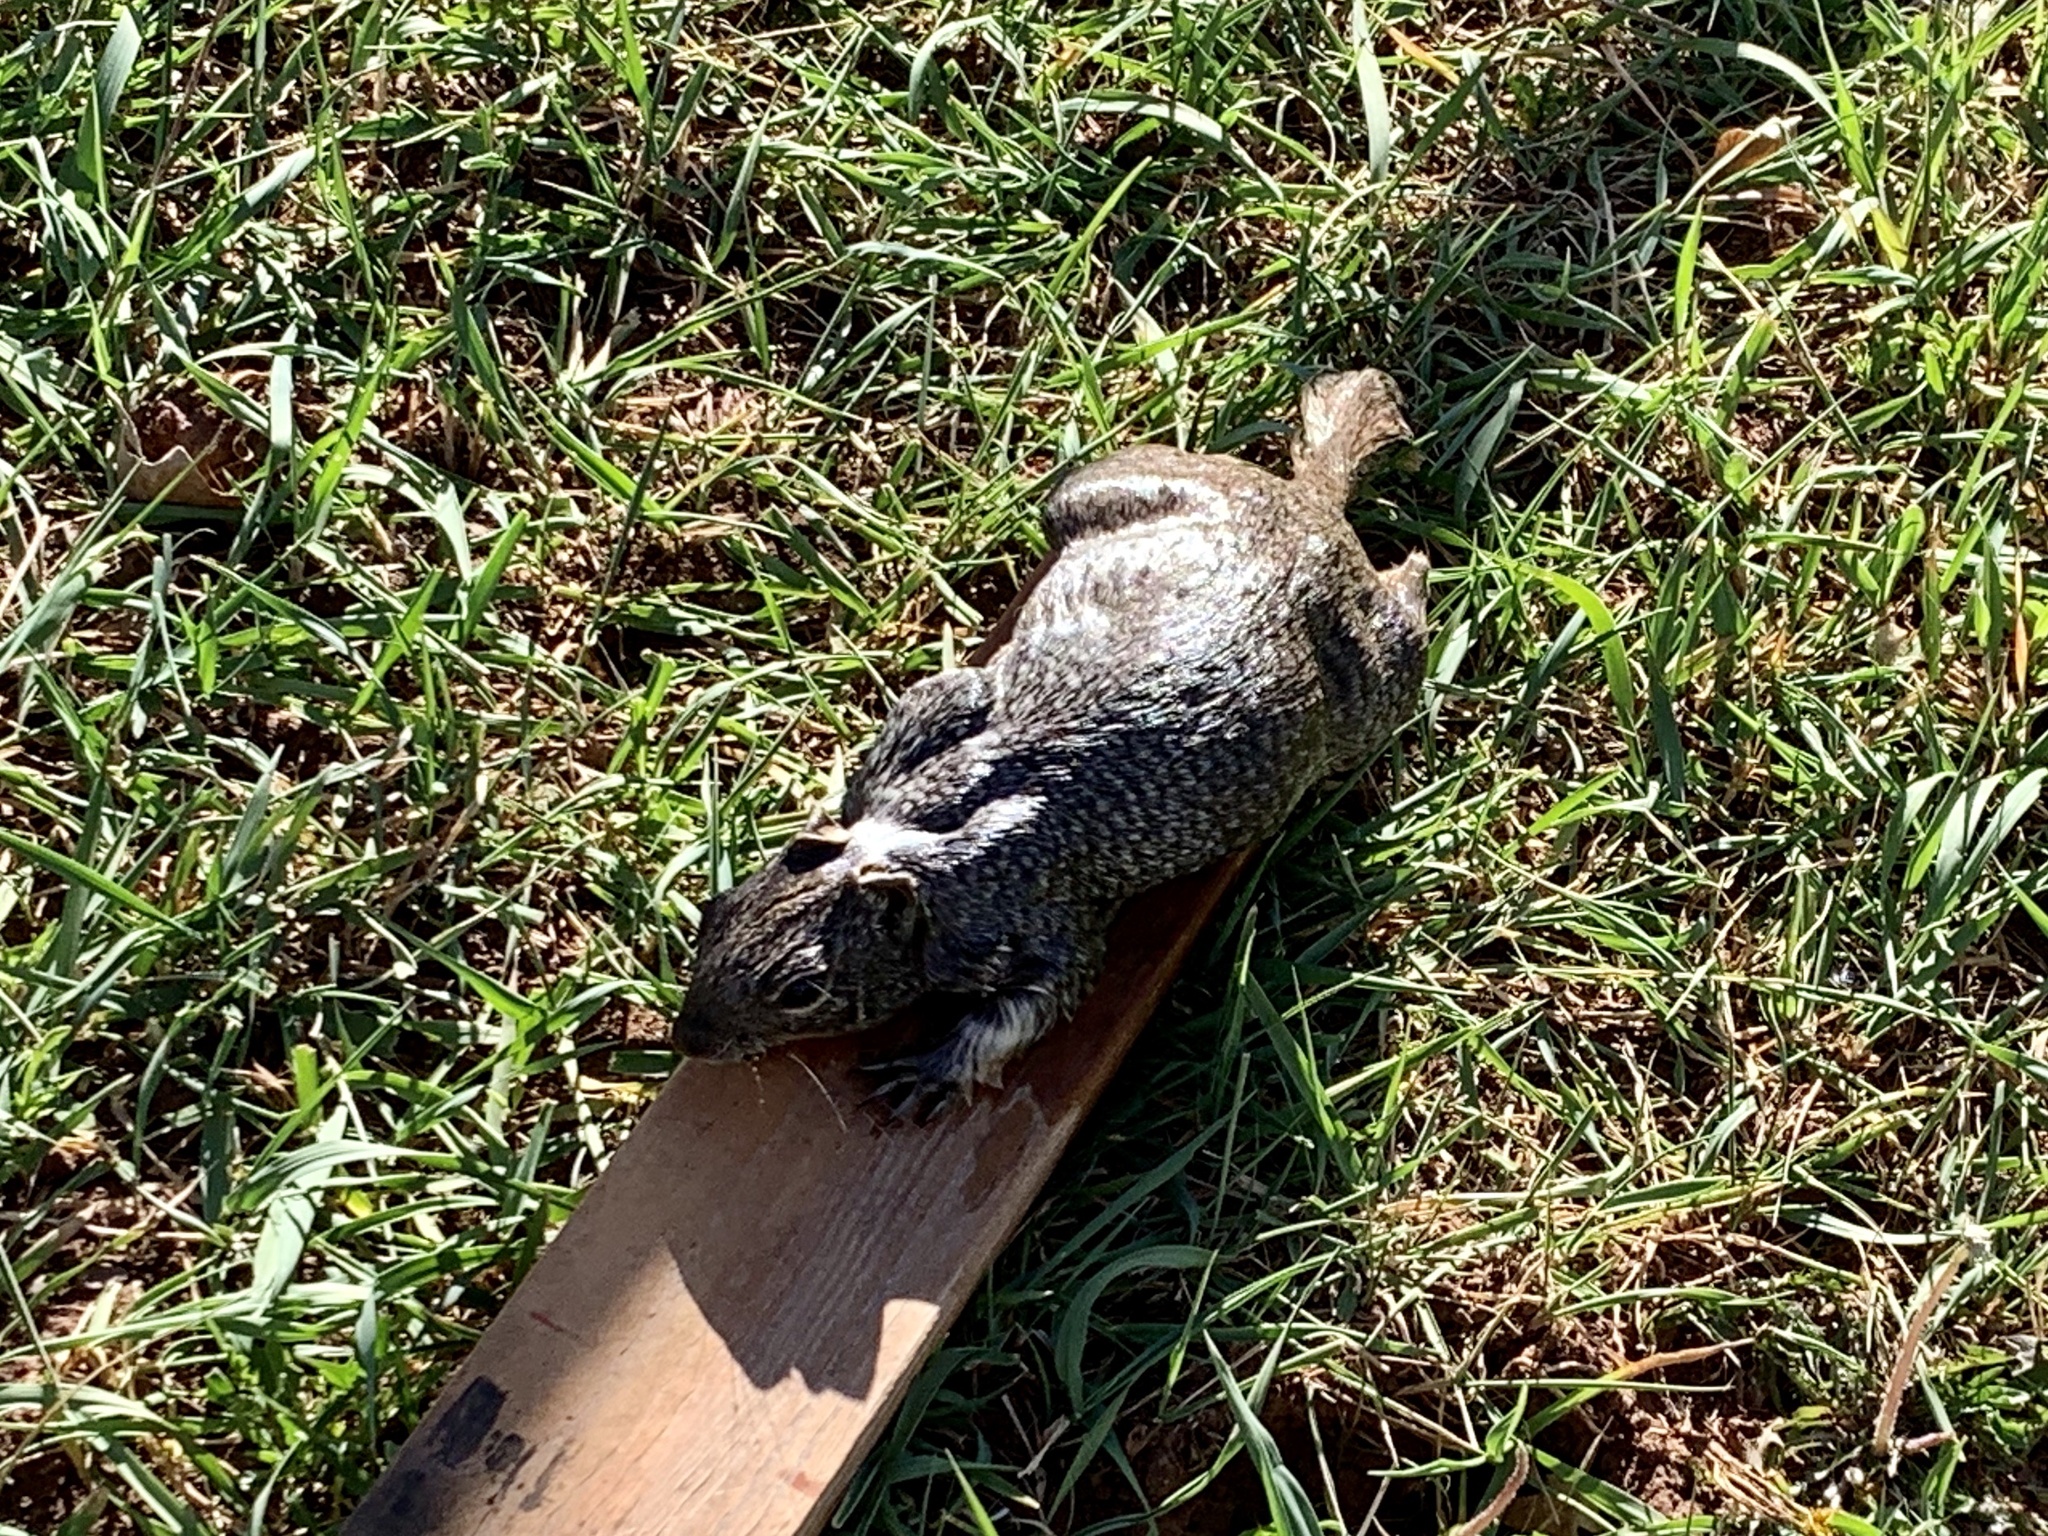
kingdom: Animalia
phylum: Chordata
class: Mammalia
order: Rodentia
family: Sciuridae
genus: Otospermophilus
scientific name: Otospermophilus variegatus
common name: Rock squirrel
